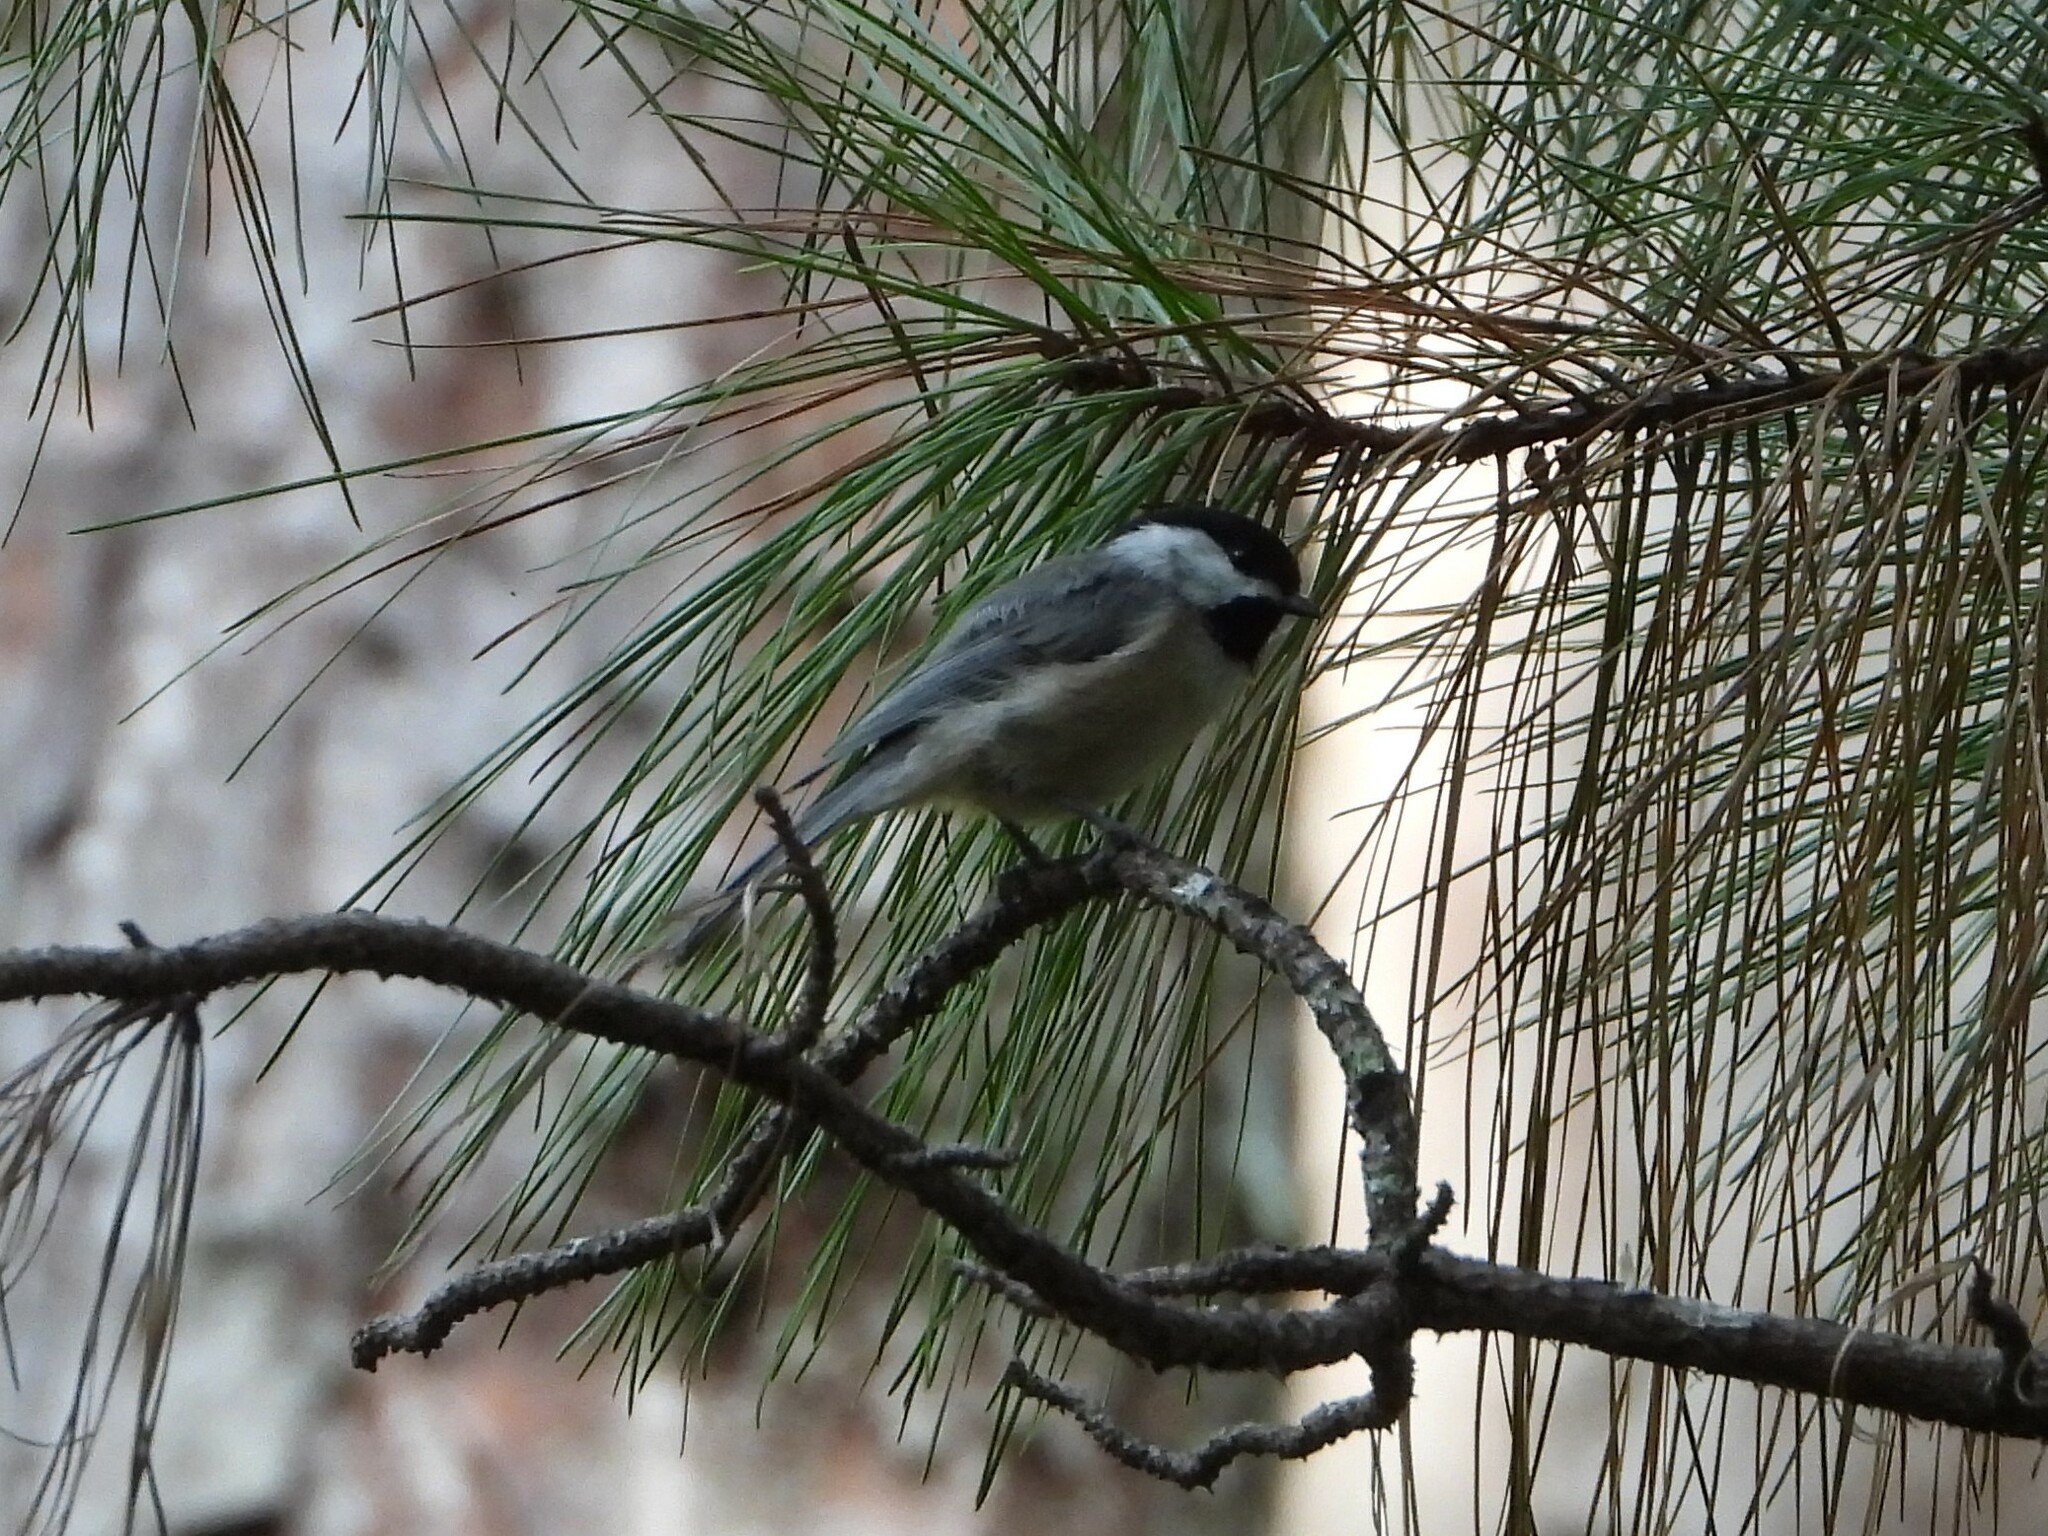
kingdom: Animalia
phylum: Chordata
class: Aves
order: Passeriformes
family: Paridae
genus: Poecile
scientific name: Poecile carolinensis
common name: Carolina chickadee
